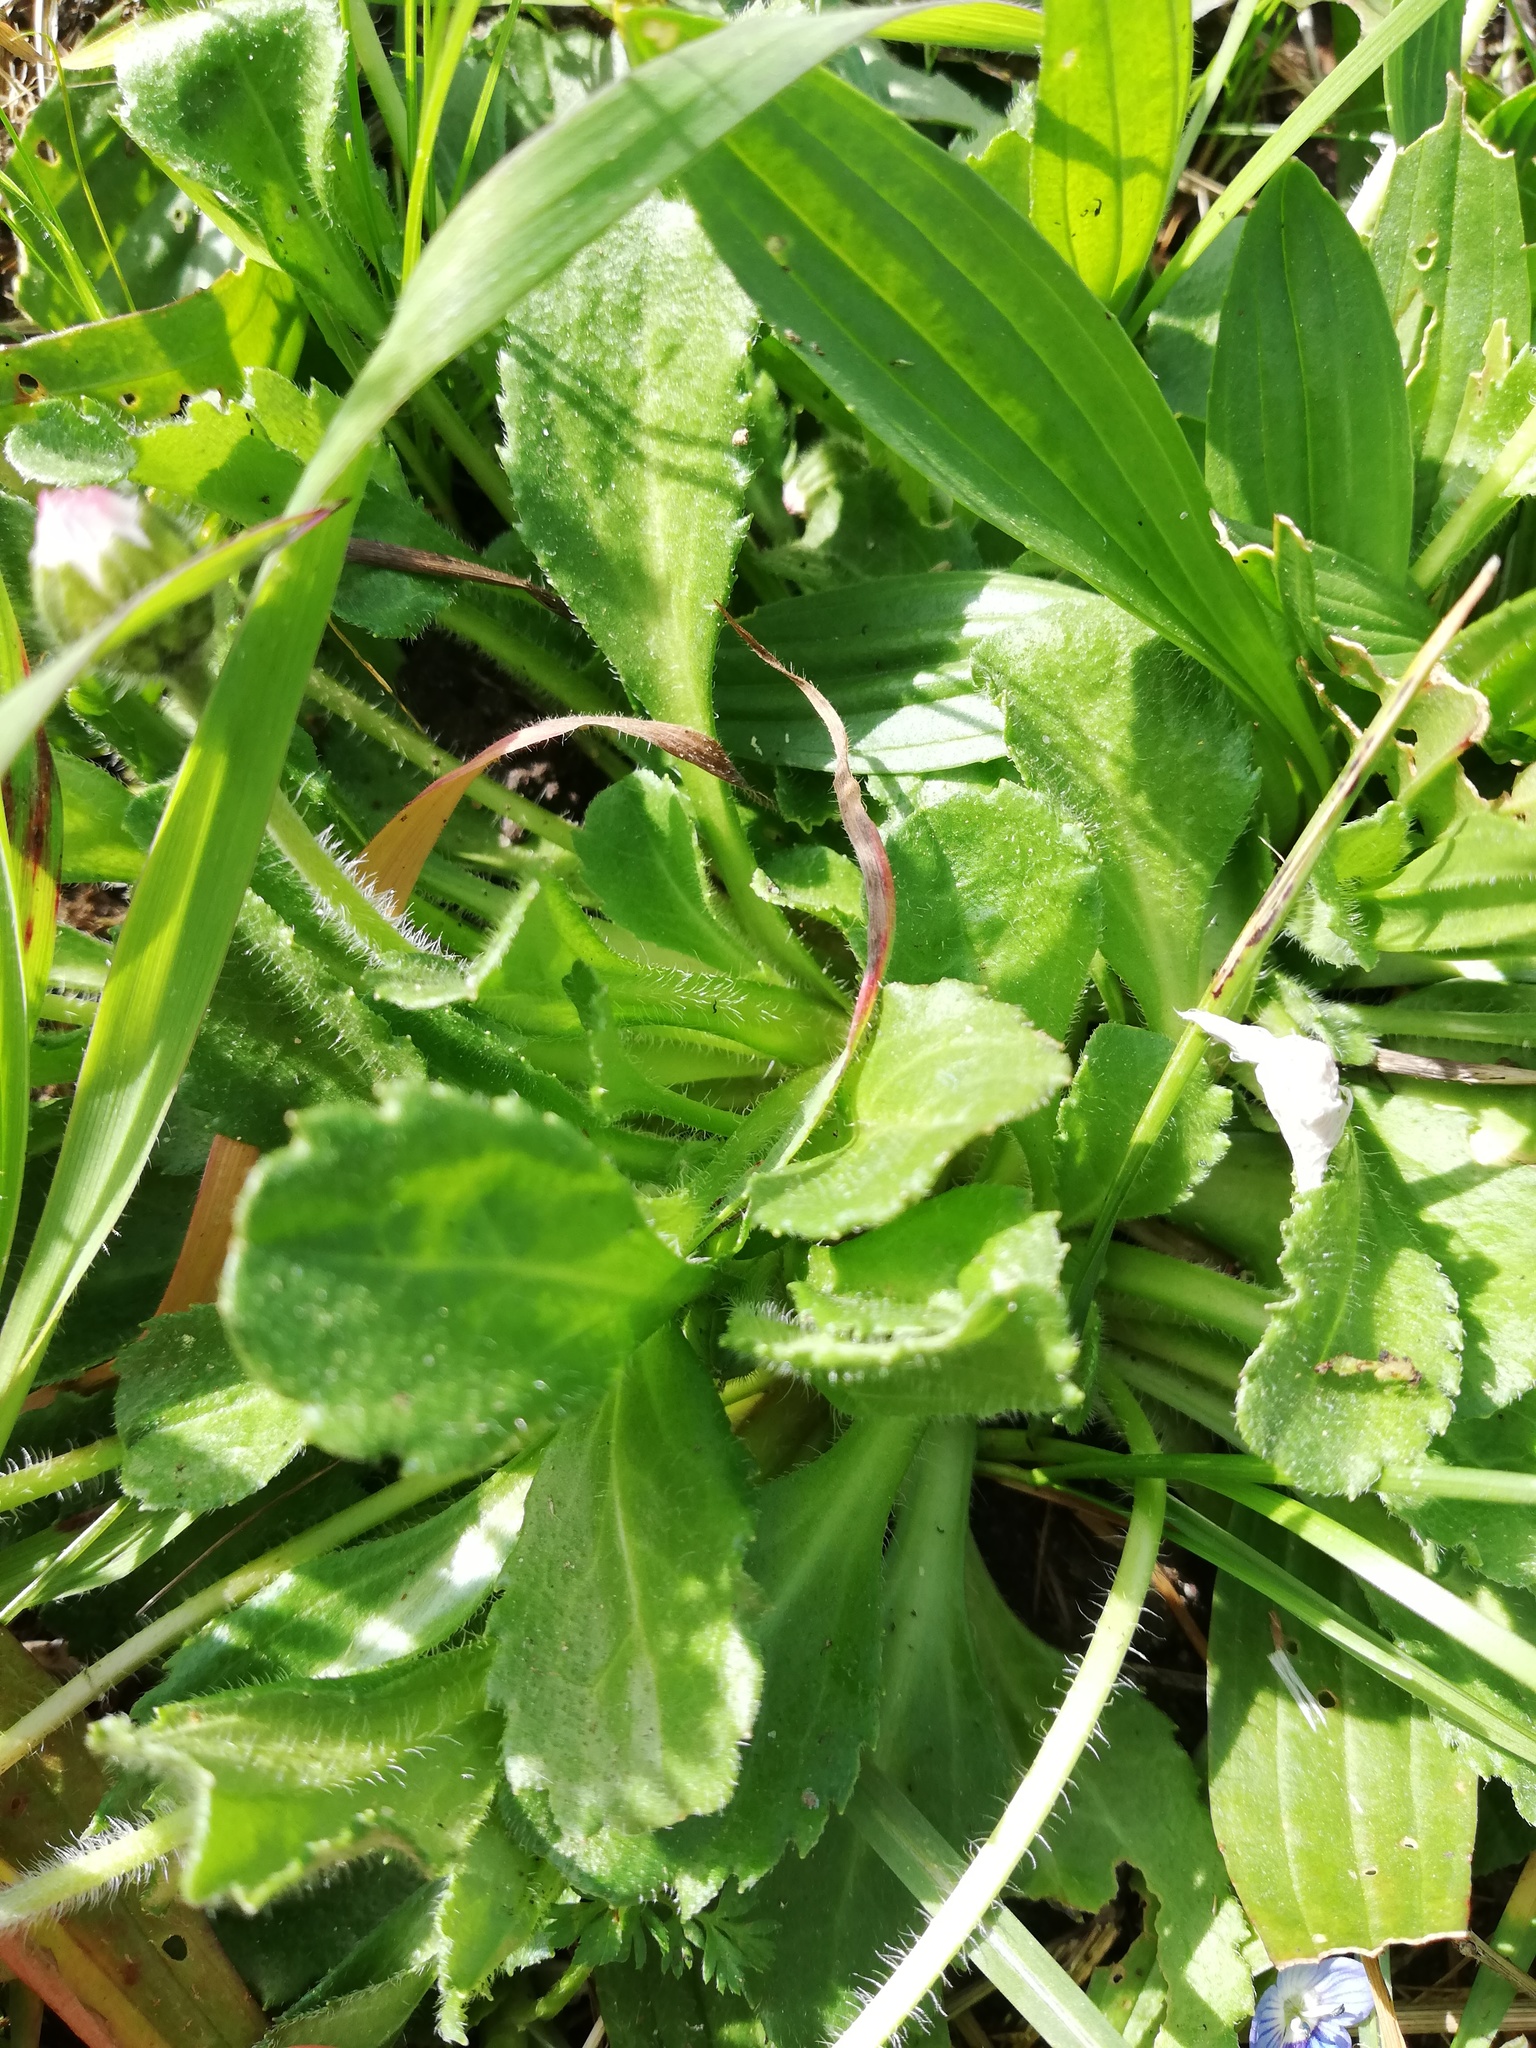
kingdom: Plantae
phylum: Tracheophyta
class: Magnoliopsida
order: Asterales
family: Asteraceae
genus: Bellis
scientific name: Bellis perennis
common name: Lawndaisy
